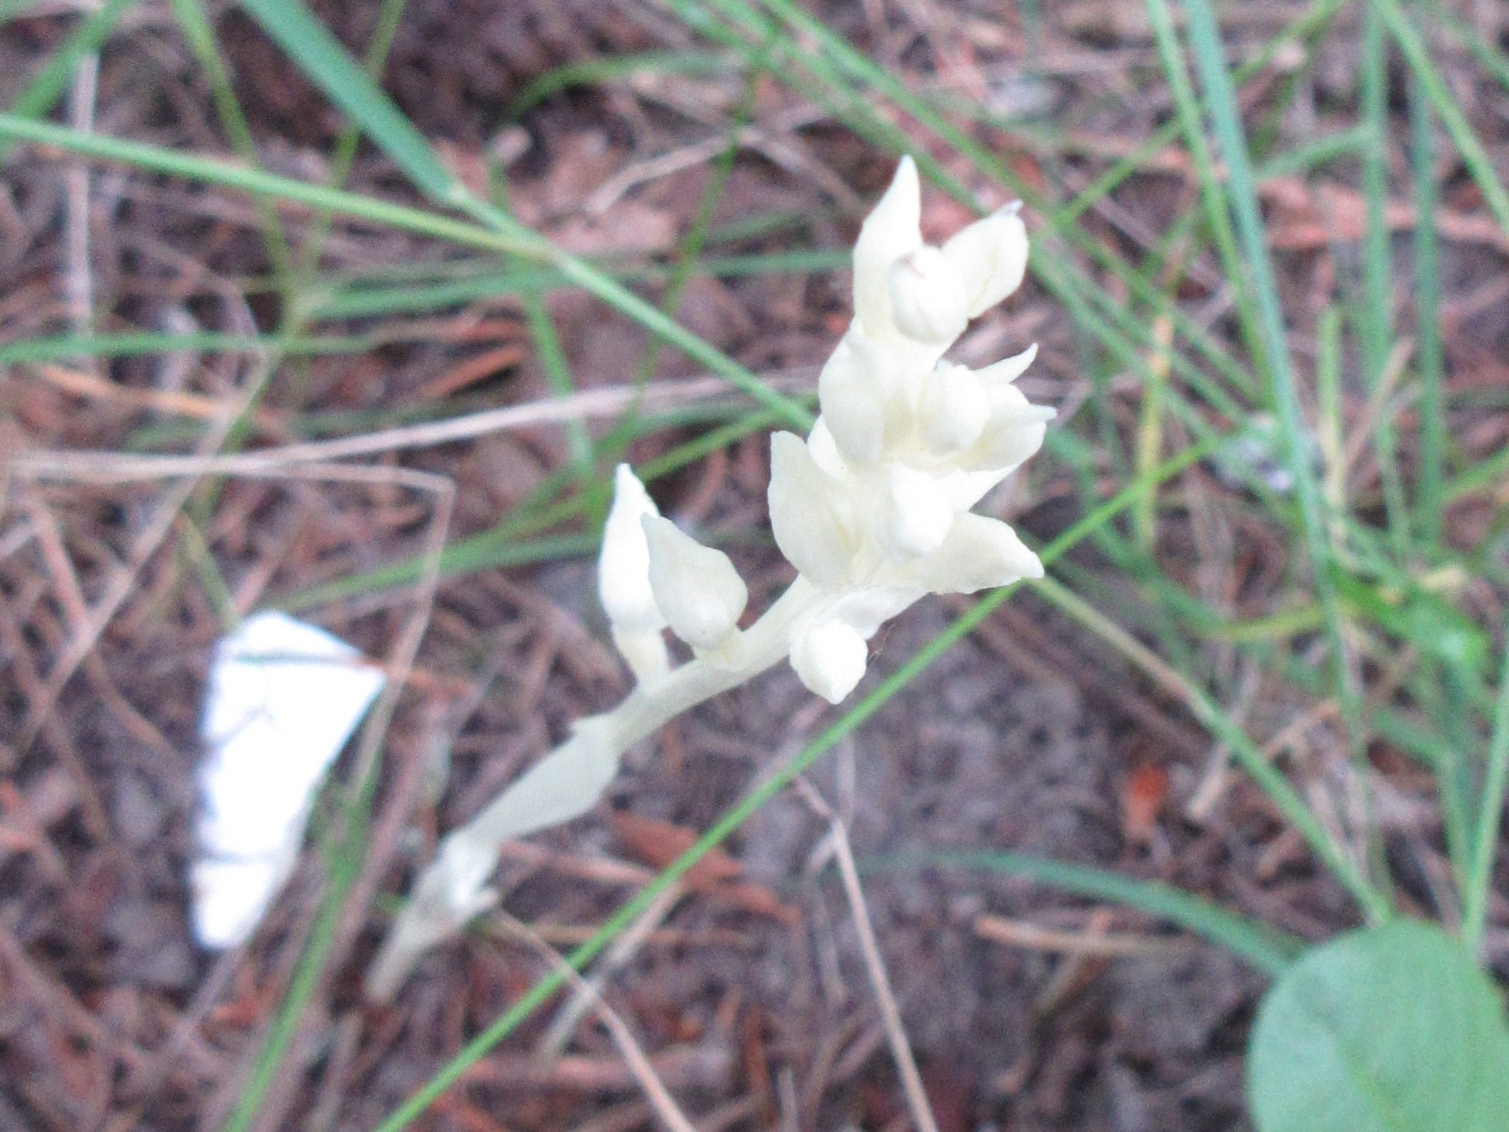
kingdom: Plantae
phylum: Tracheophyta
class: Liliopsida
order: Asparagales
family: Orchidaceae
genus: Cephalanthera
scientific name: Cephalanthera austiniae
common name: Phantom orchid
